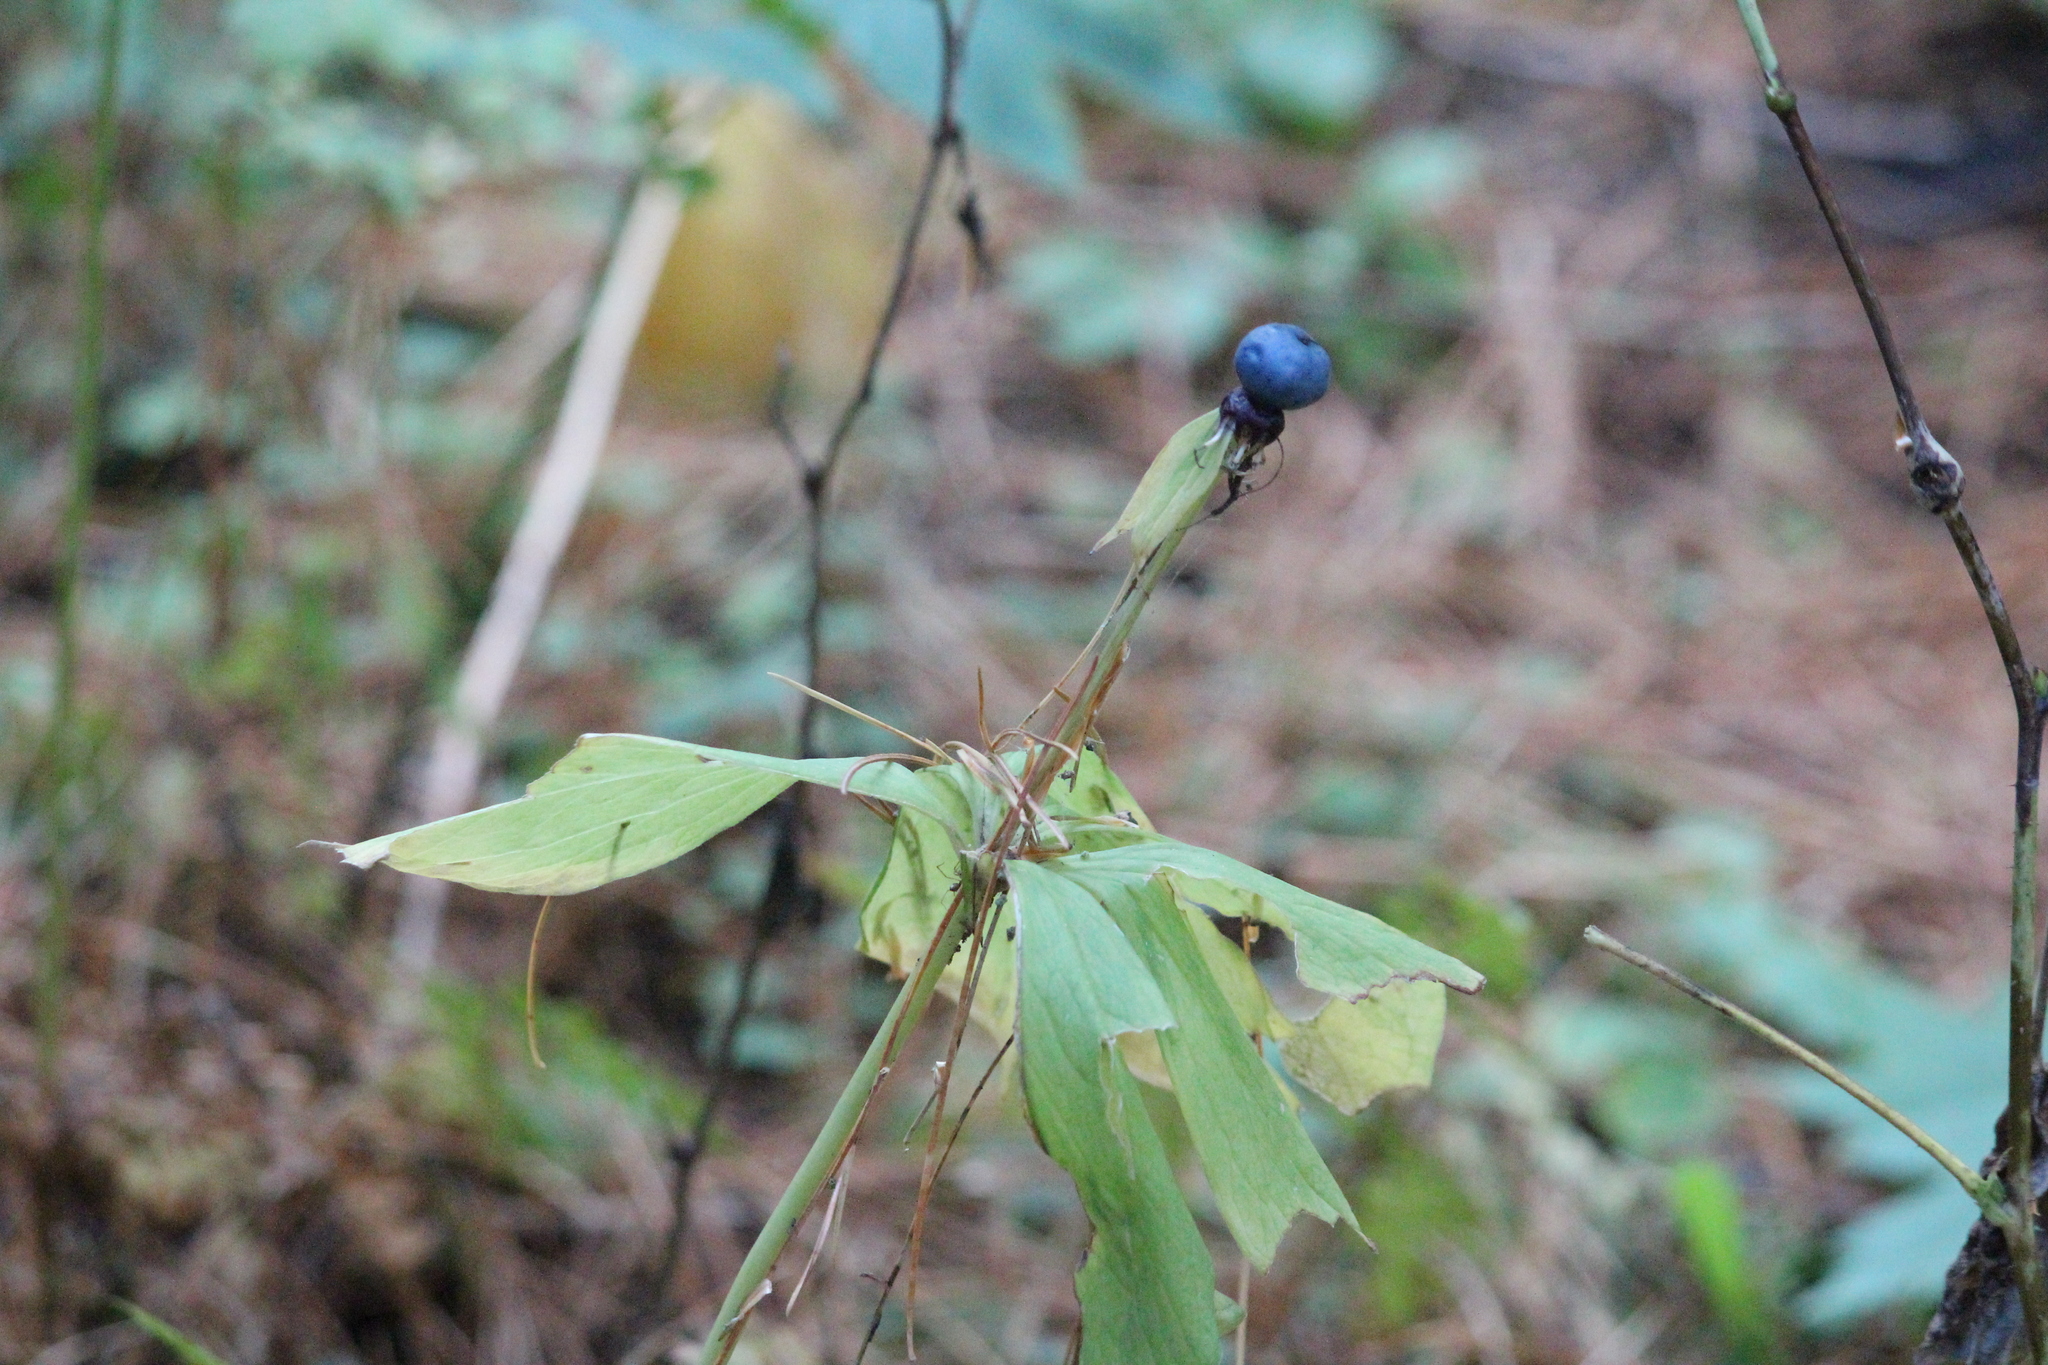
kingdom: Plantae
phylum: Tracheophyta
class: Liliopsida
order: Liliales
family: Melanthiaceae
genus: Paris
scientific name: Paris quadrifolia
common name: Herb-paris
